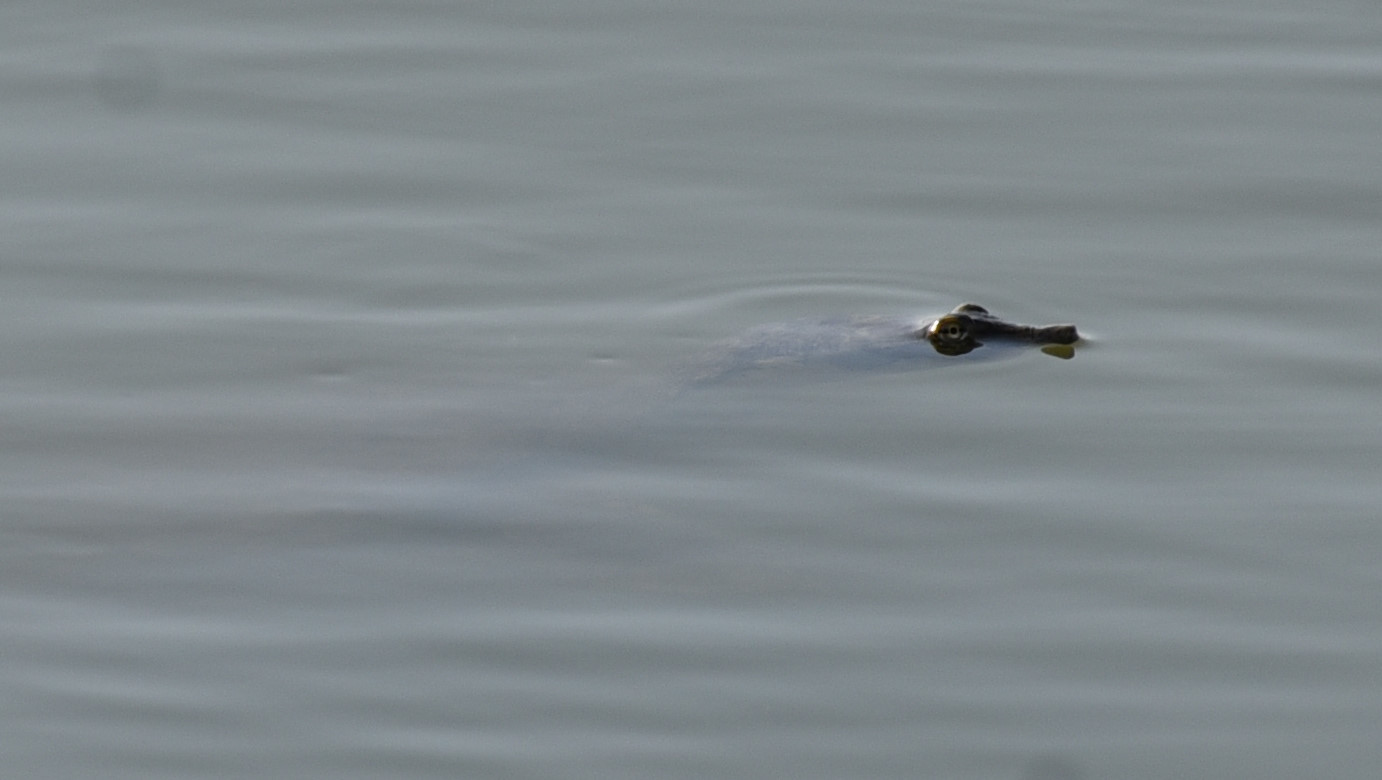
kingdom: Animalia
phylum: Chordata
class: Testudines
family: Trionychidae
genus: Apalone
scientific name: Apalone spinifera
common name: Spiny softshell turtle
